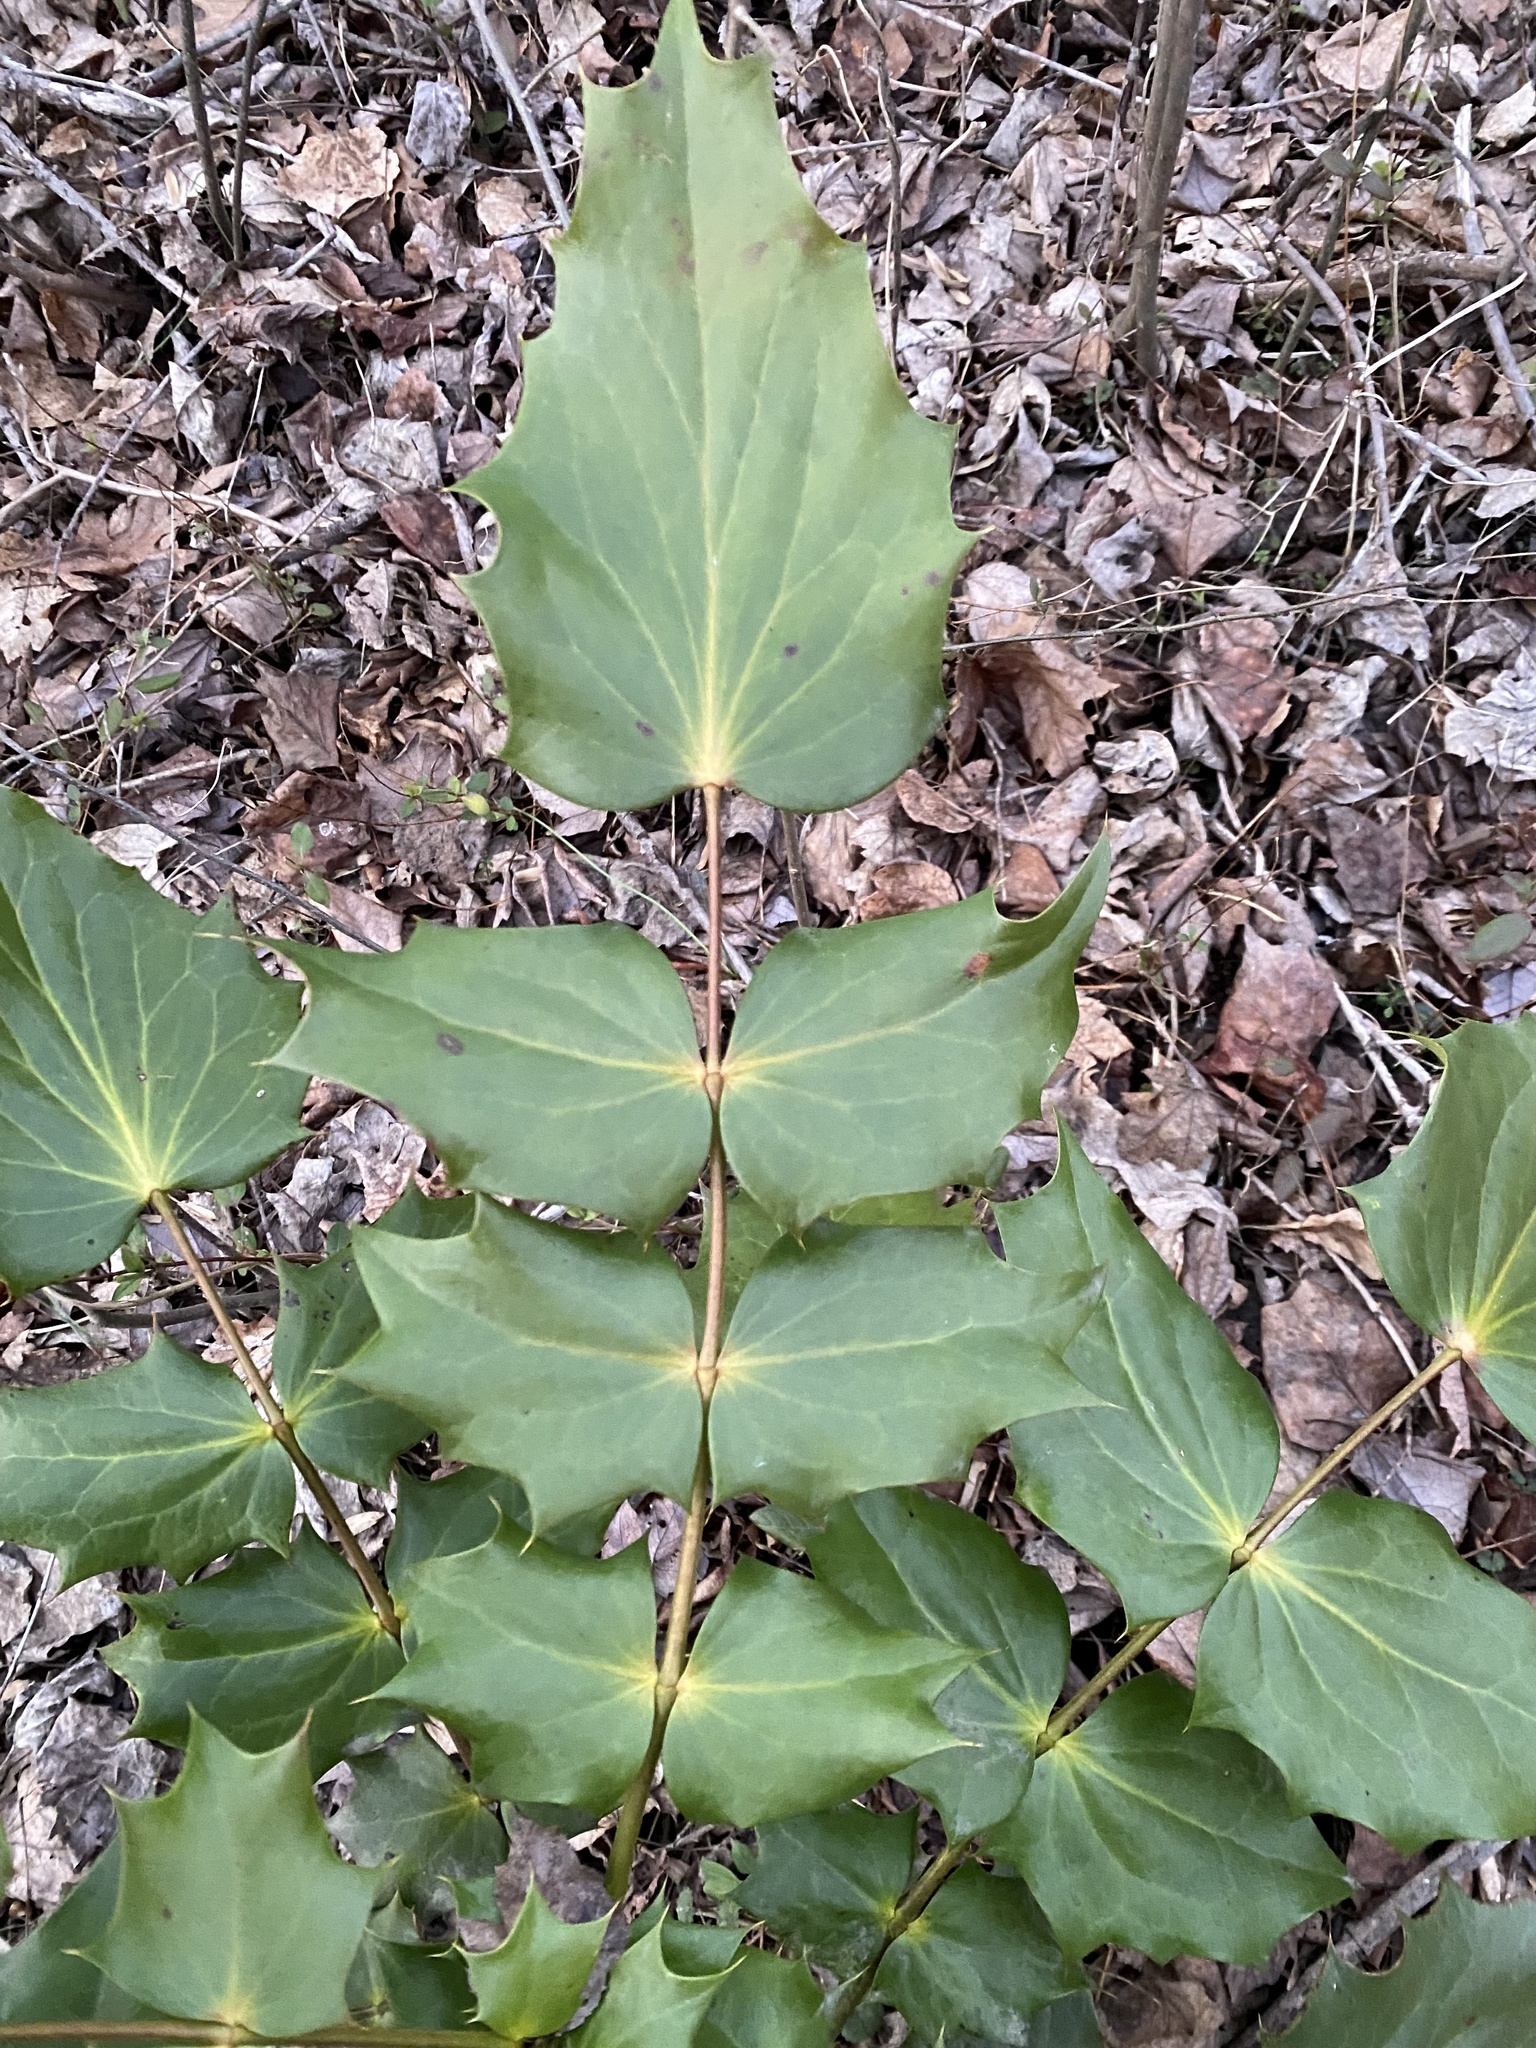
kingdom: Plantae
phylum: Tracheophyta
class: Magnoliopsida
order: Ranunculales
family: Berberidaceae
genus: Mahonia
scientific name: Mahonia bealei
